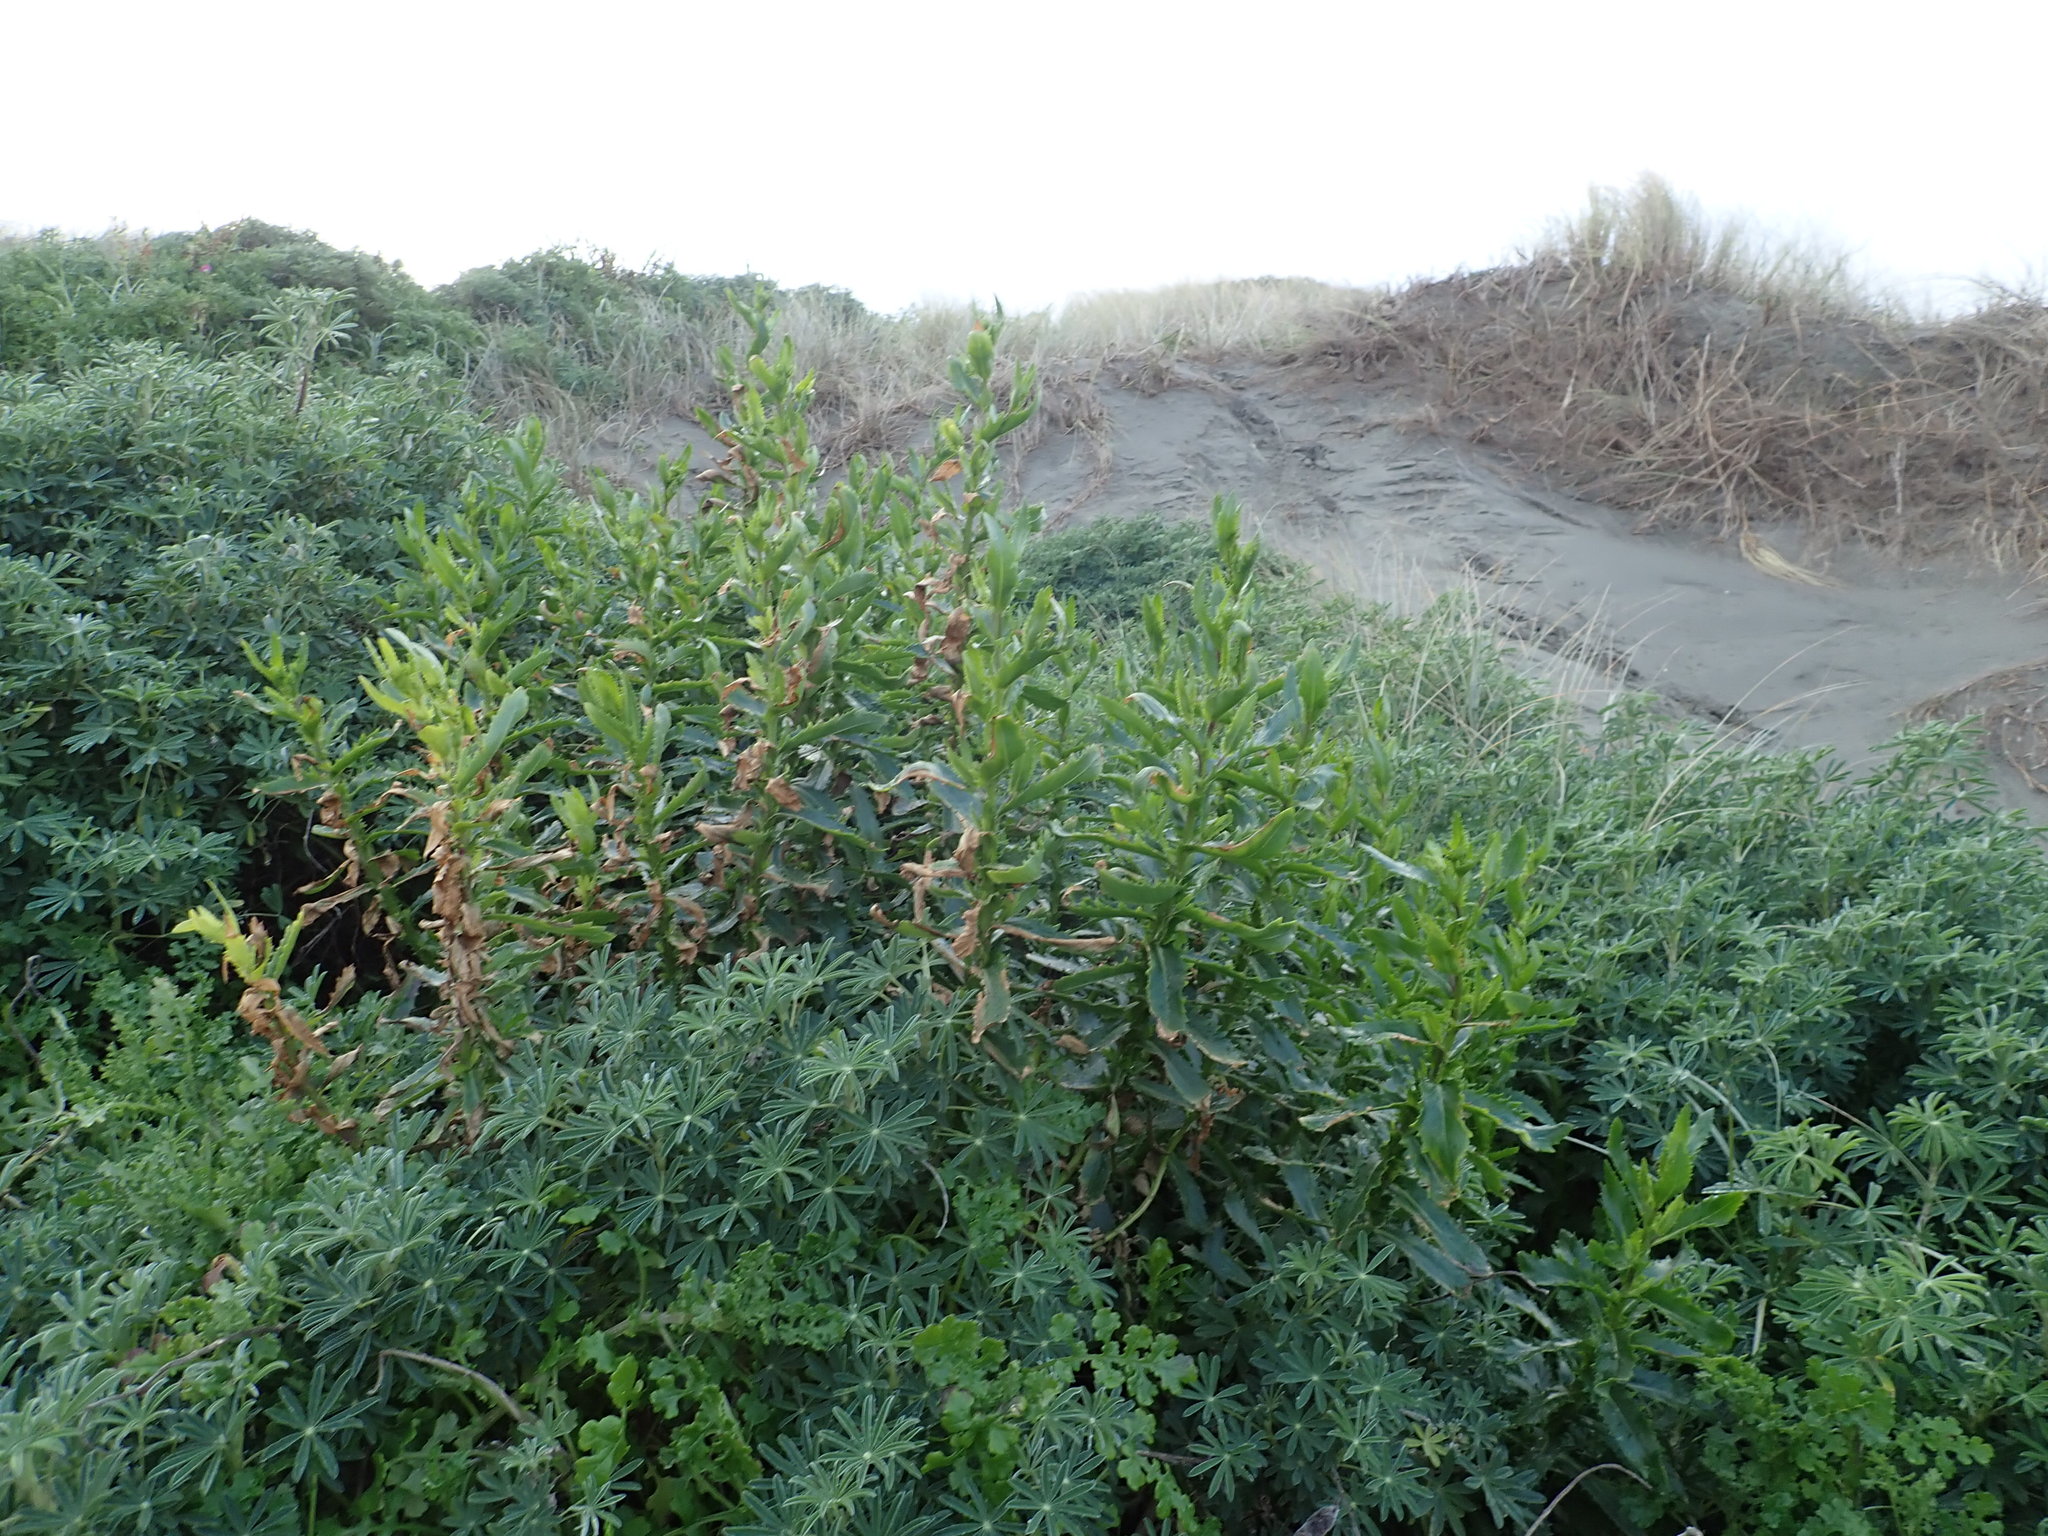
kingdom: Plantae
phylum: Tracheophyta
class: Magnoliopsida
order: Fabales
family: Fabaceae
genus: Lupinus
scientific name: Lupinus arboreus
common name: Yellow bush lupine
